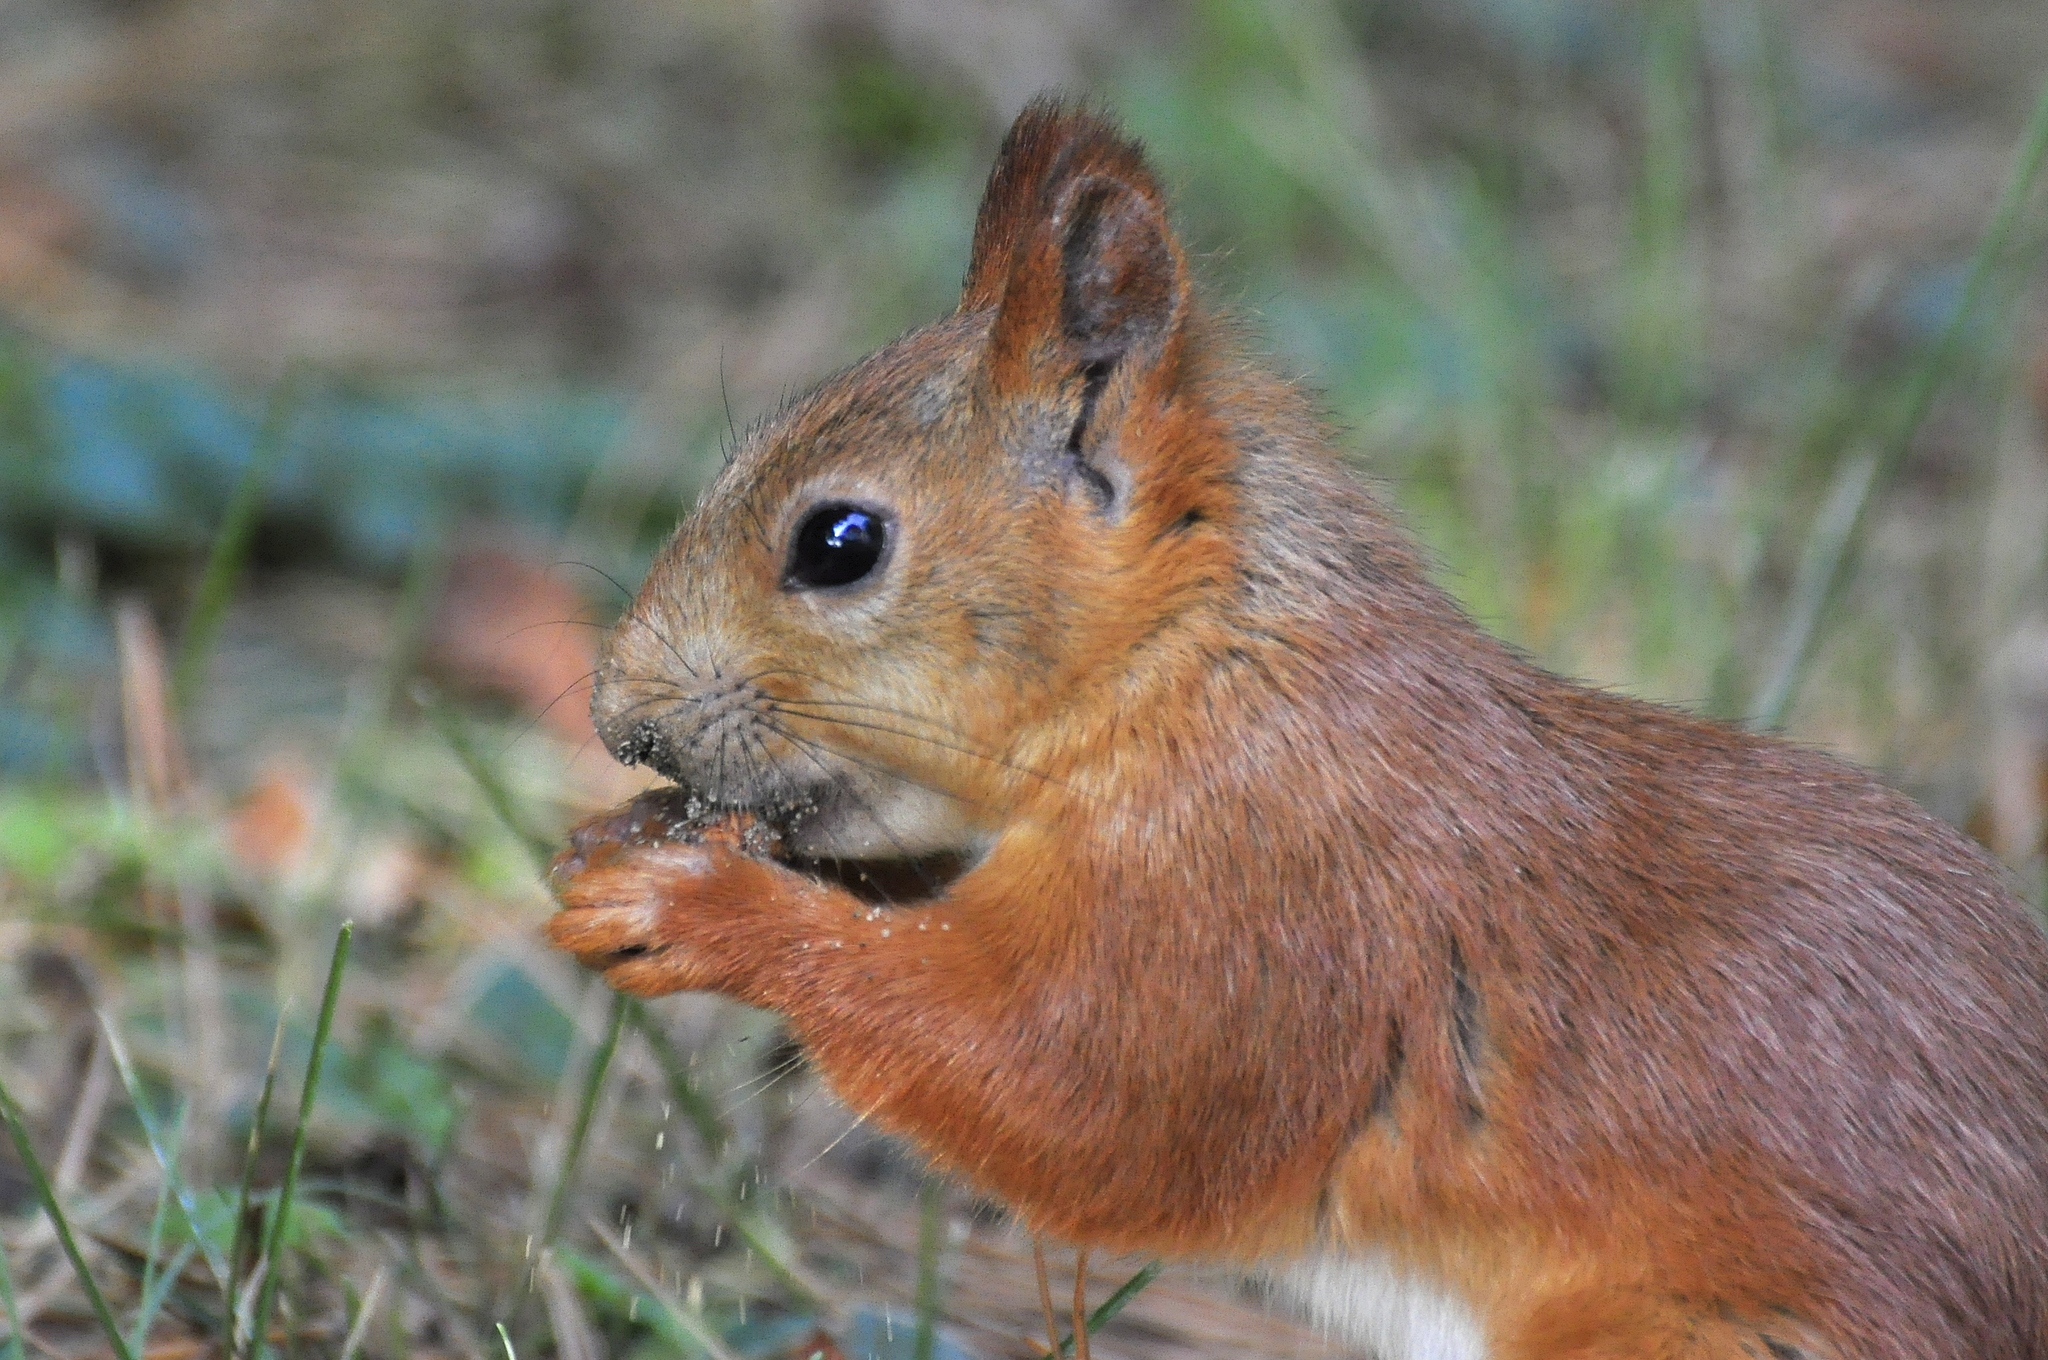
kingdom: Animalia
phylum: Chordata
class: Mammalia
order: Rodentia
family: Sciuridae
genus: Sciurus
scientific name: Sciurus vulgaris
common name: Eurasian red squirrel
